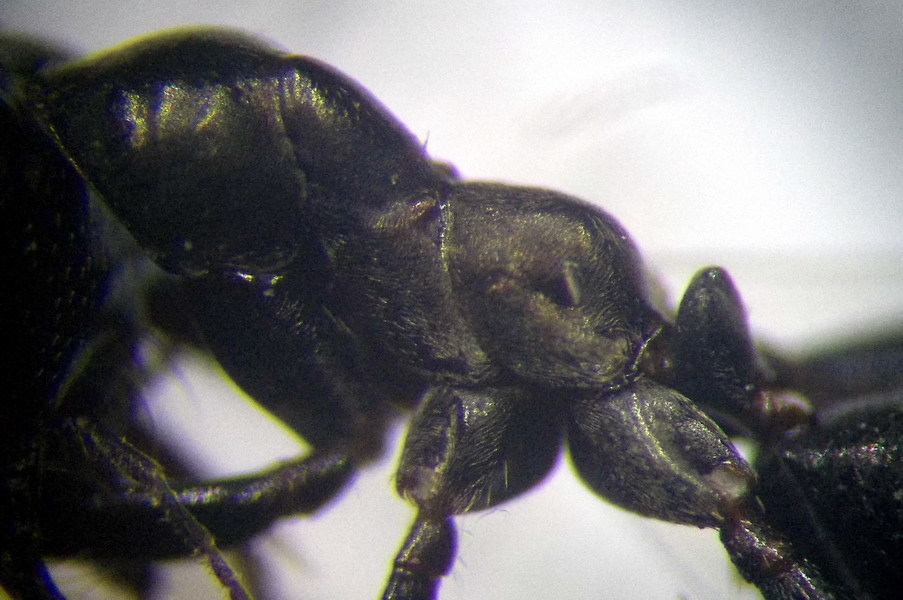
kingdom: Animalia
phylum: Arthropoda
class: Insecta
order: Hymenoptera
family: Formicidae
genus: Cataglyphis
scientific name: Cataglyphis aenescens
